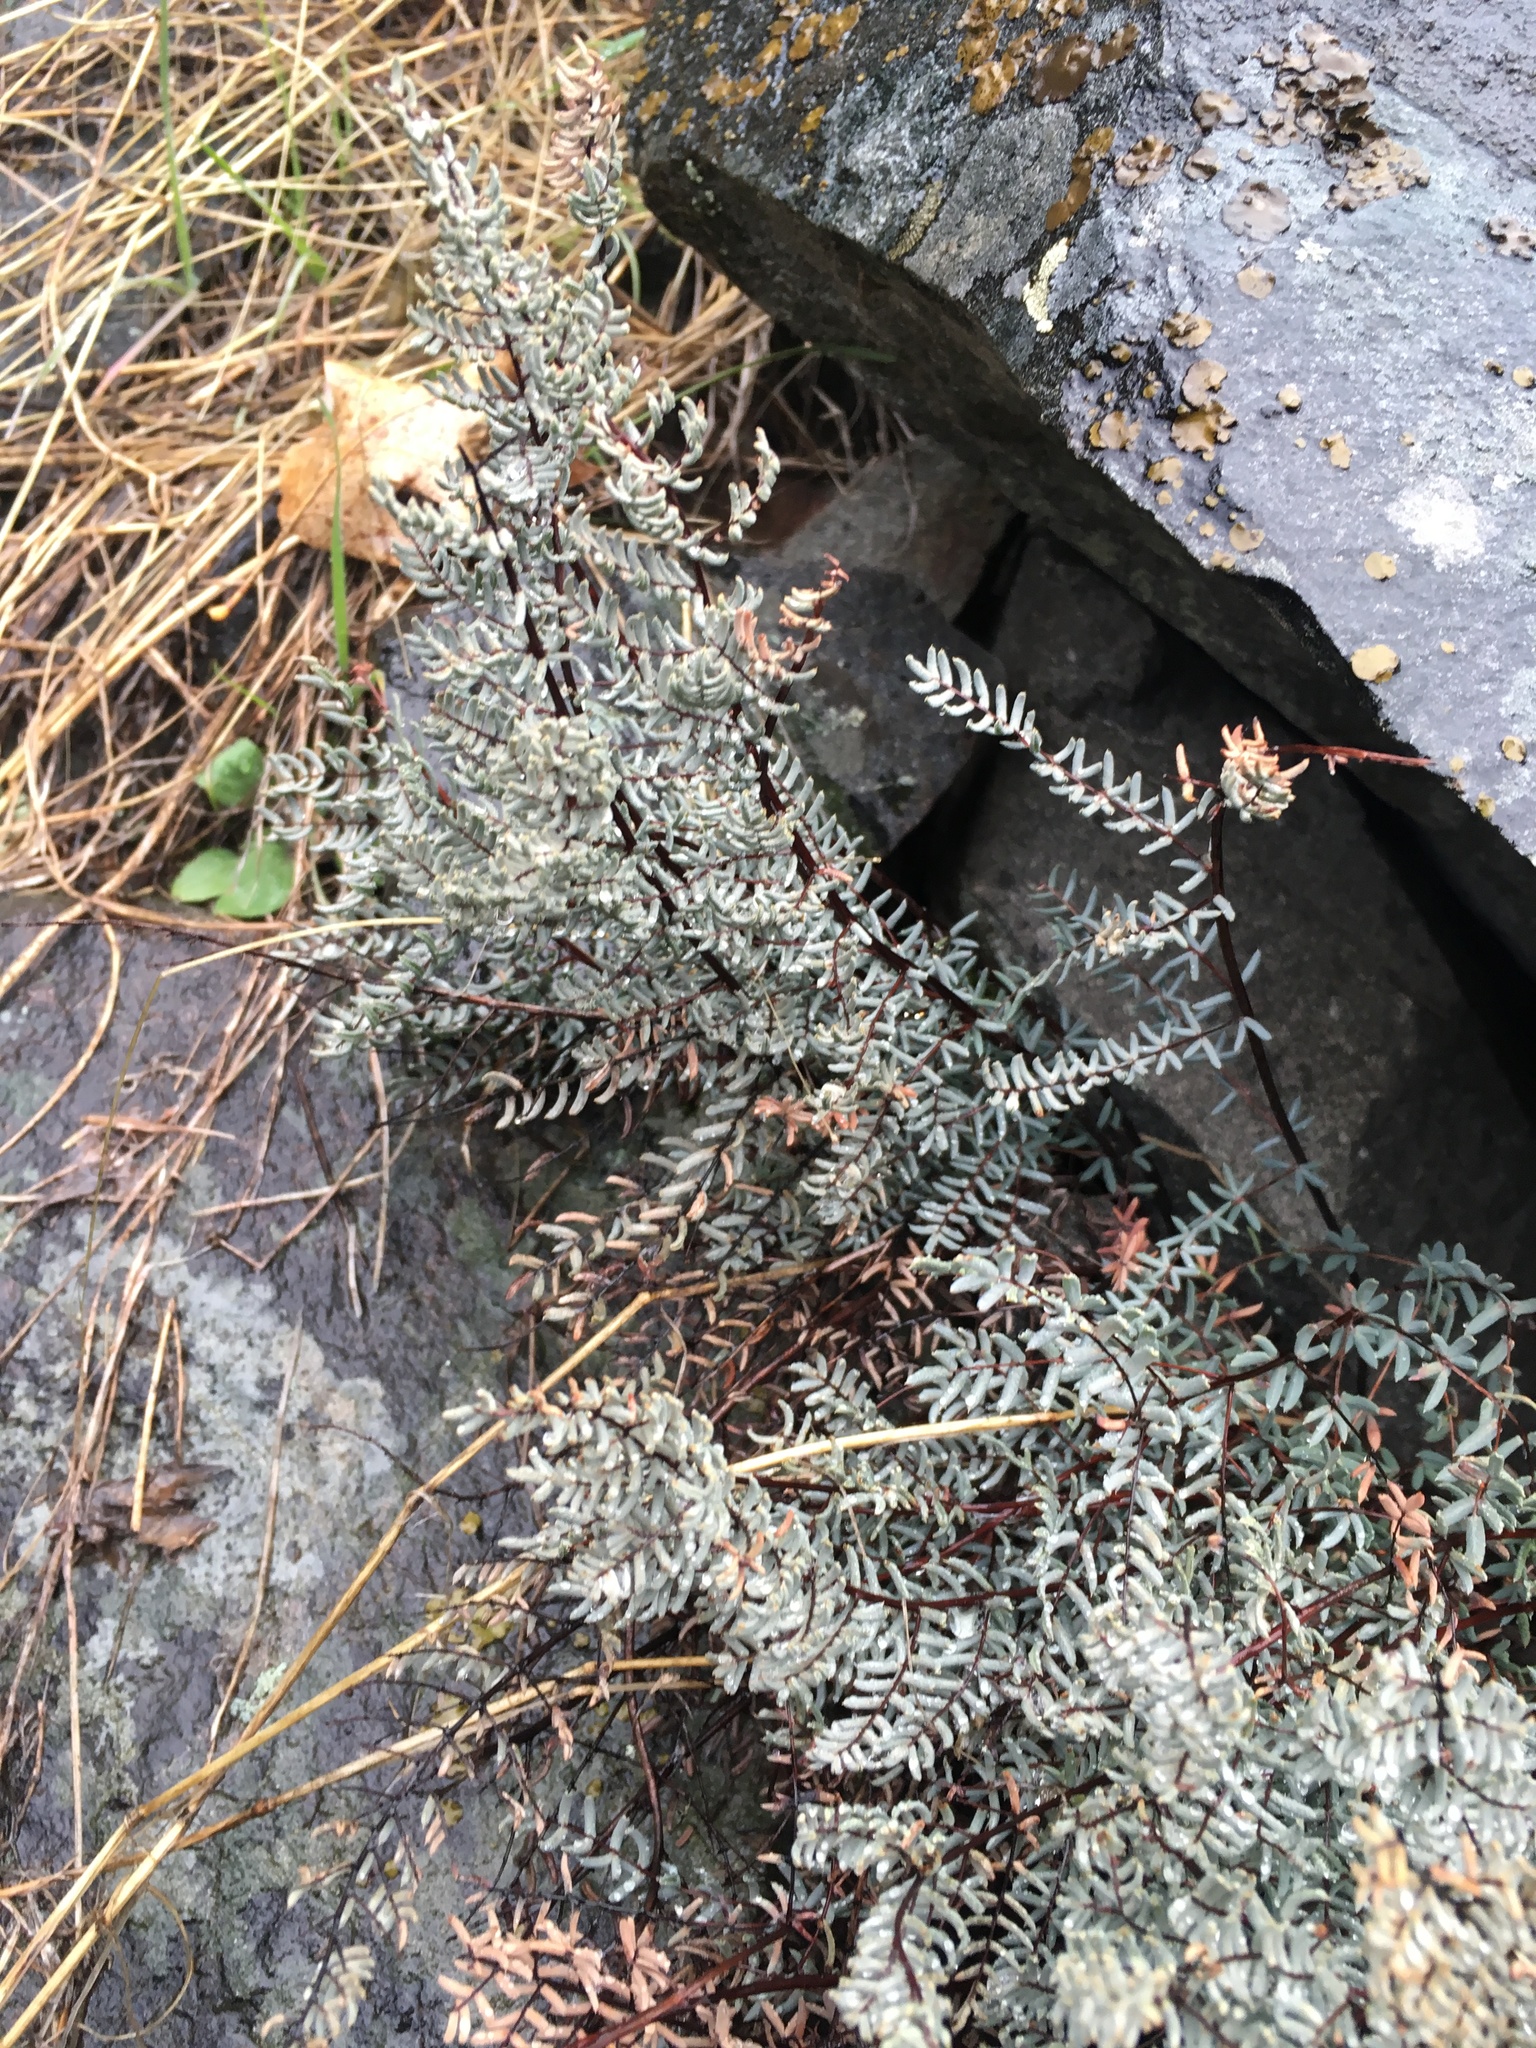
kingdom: Plantae
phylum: Tracheophyta
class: Polypodiopsida
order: Polypodiales
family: Pteridaceae
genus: Pellaea
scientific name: Pellaea mucronata
